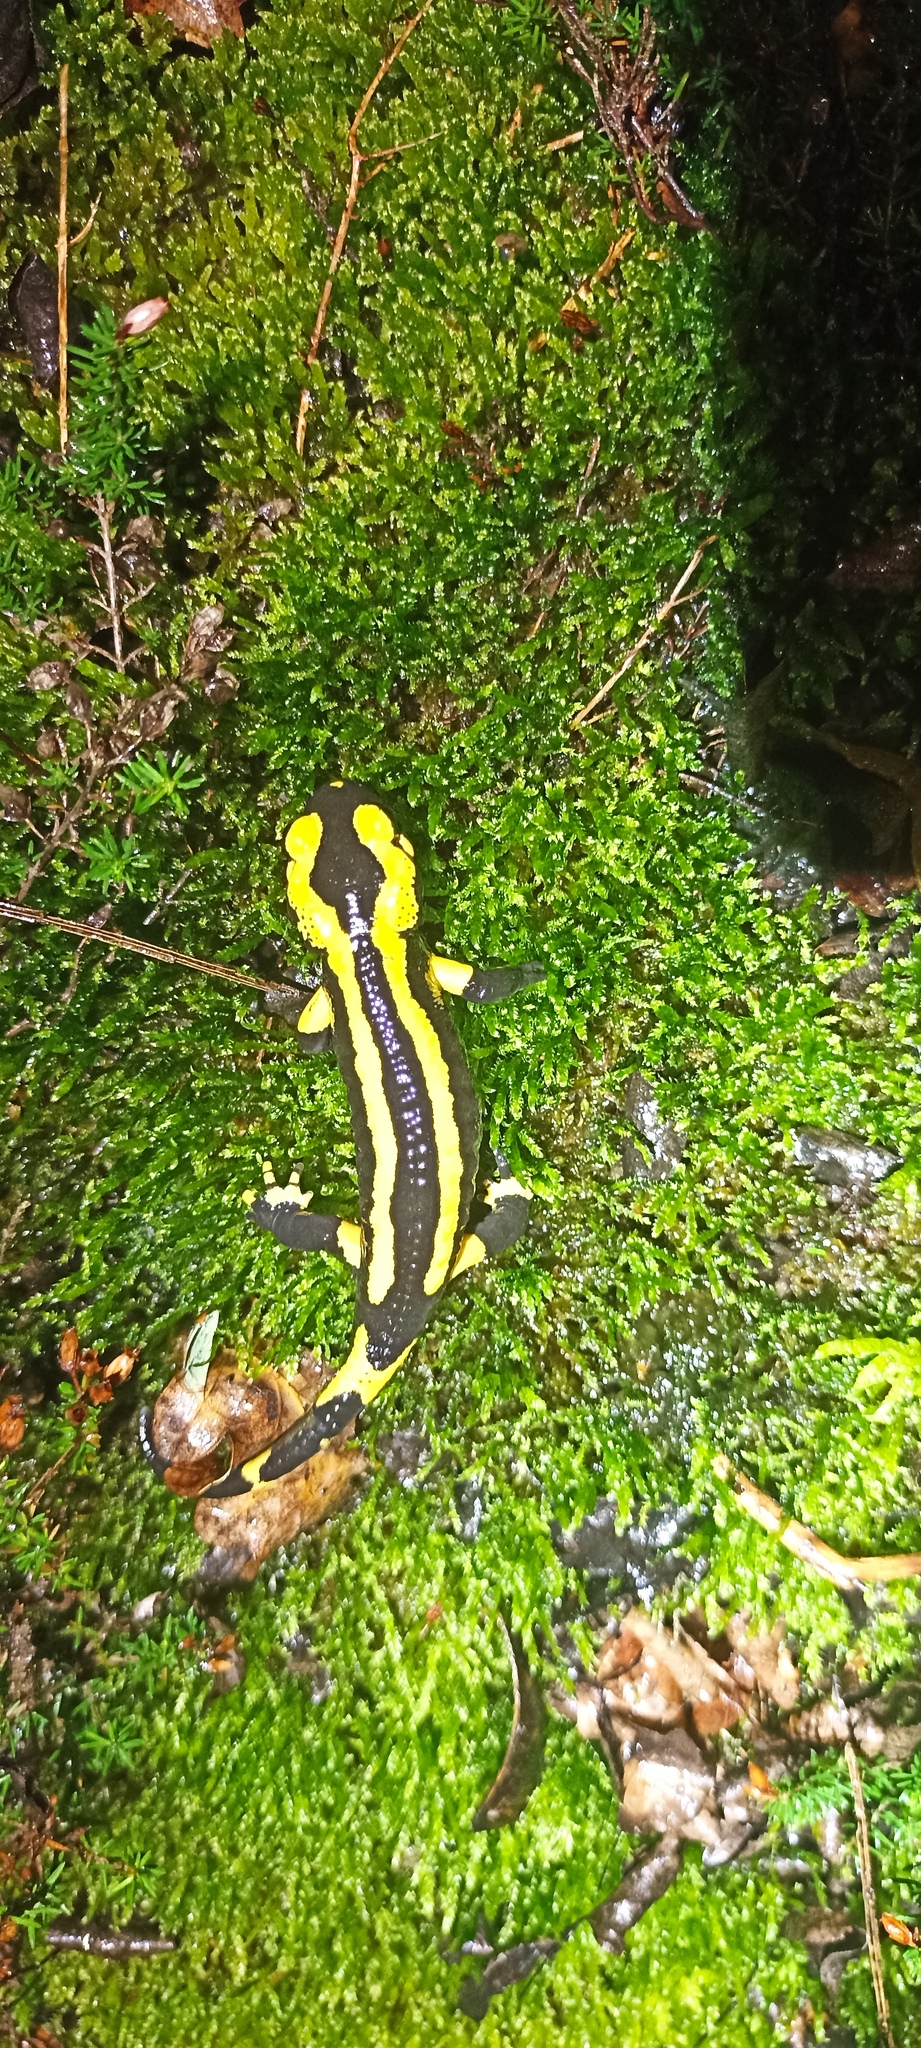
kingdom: Animalia
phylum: Chordata
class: Amphibia
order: Caudata
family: Salamandridae
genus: Salamandra
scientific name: Salamandra salamandra
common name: Fire salamander
